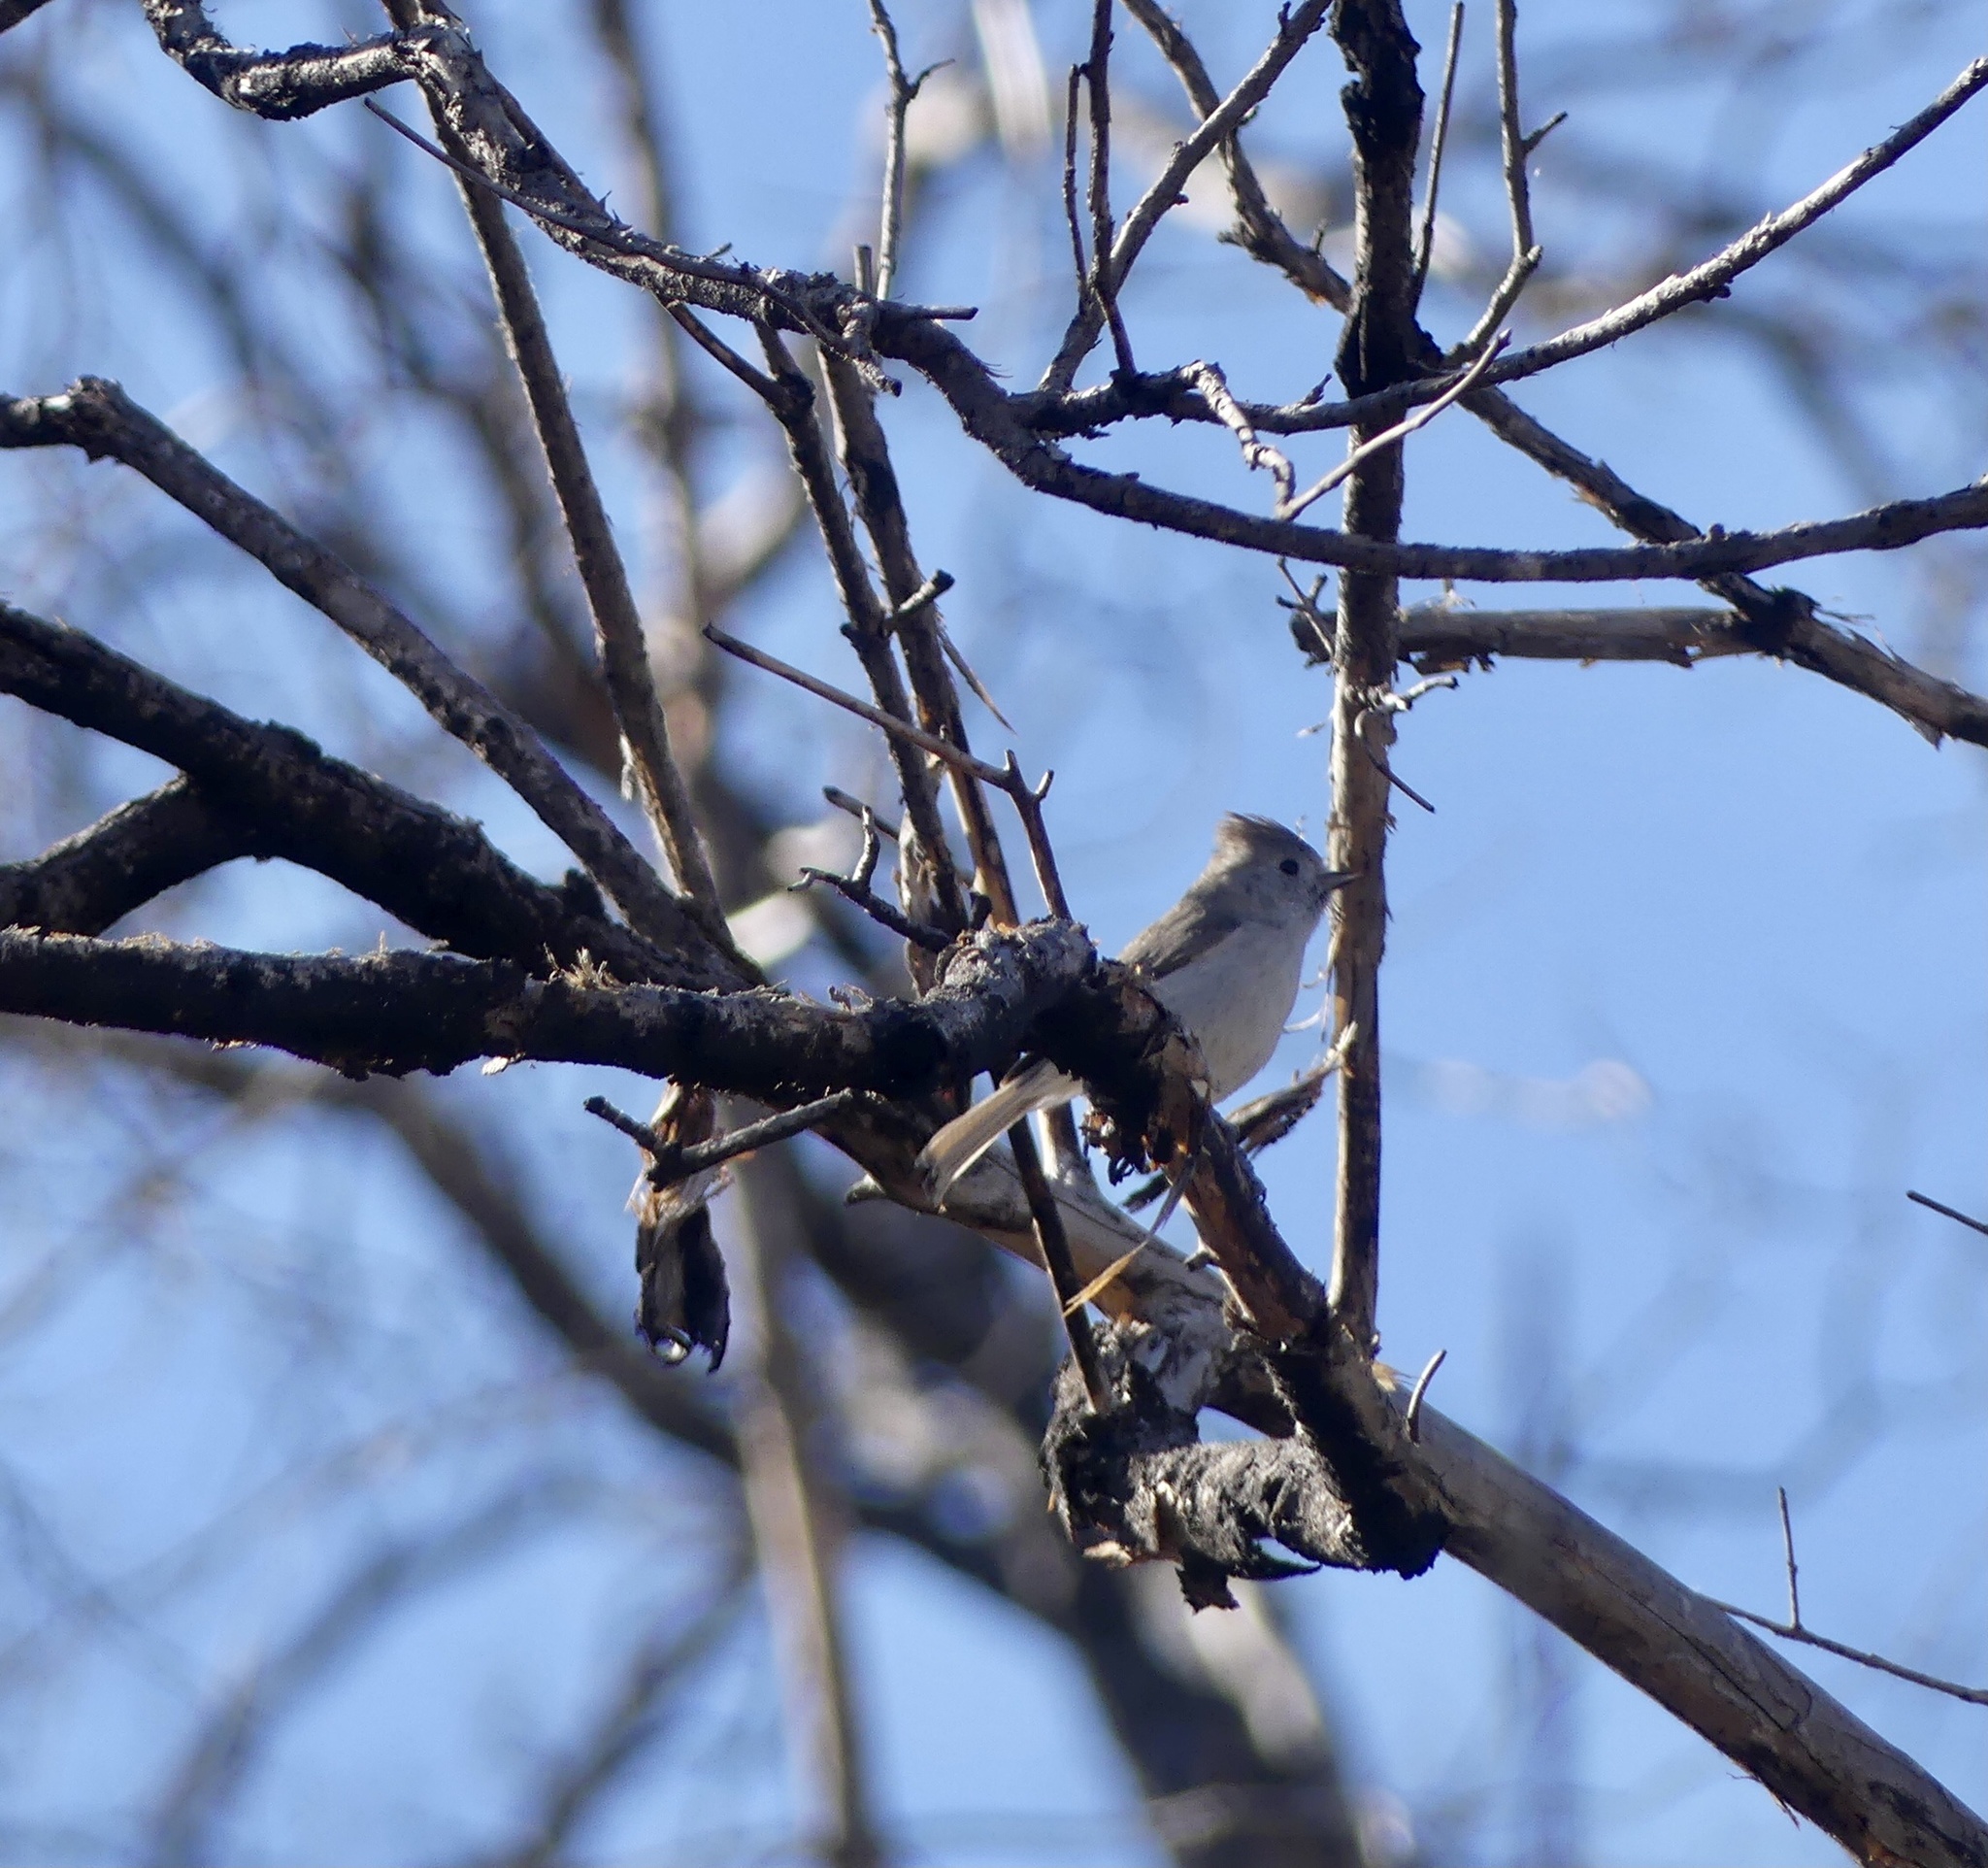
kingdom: Animalia
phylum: Chordata
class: Aves
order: Passeriformes
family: Paridae
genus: Baeolophus
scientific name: Baeolophus inornatus
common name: Oak titmouse
